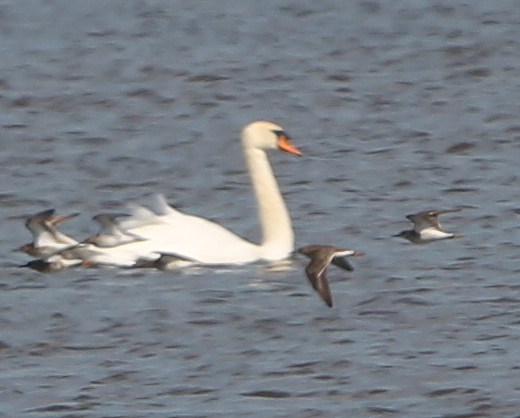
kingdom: Animalia
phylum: Chordata
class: Aves
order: Anseriformes
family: Anatidae
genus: Cygnus
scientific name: Cygnus olor
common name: Mute swan
